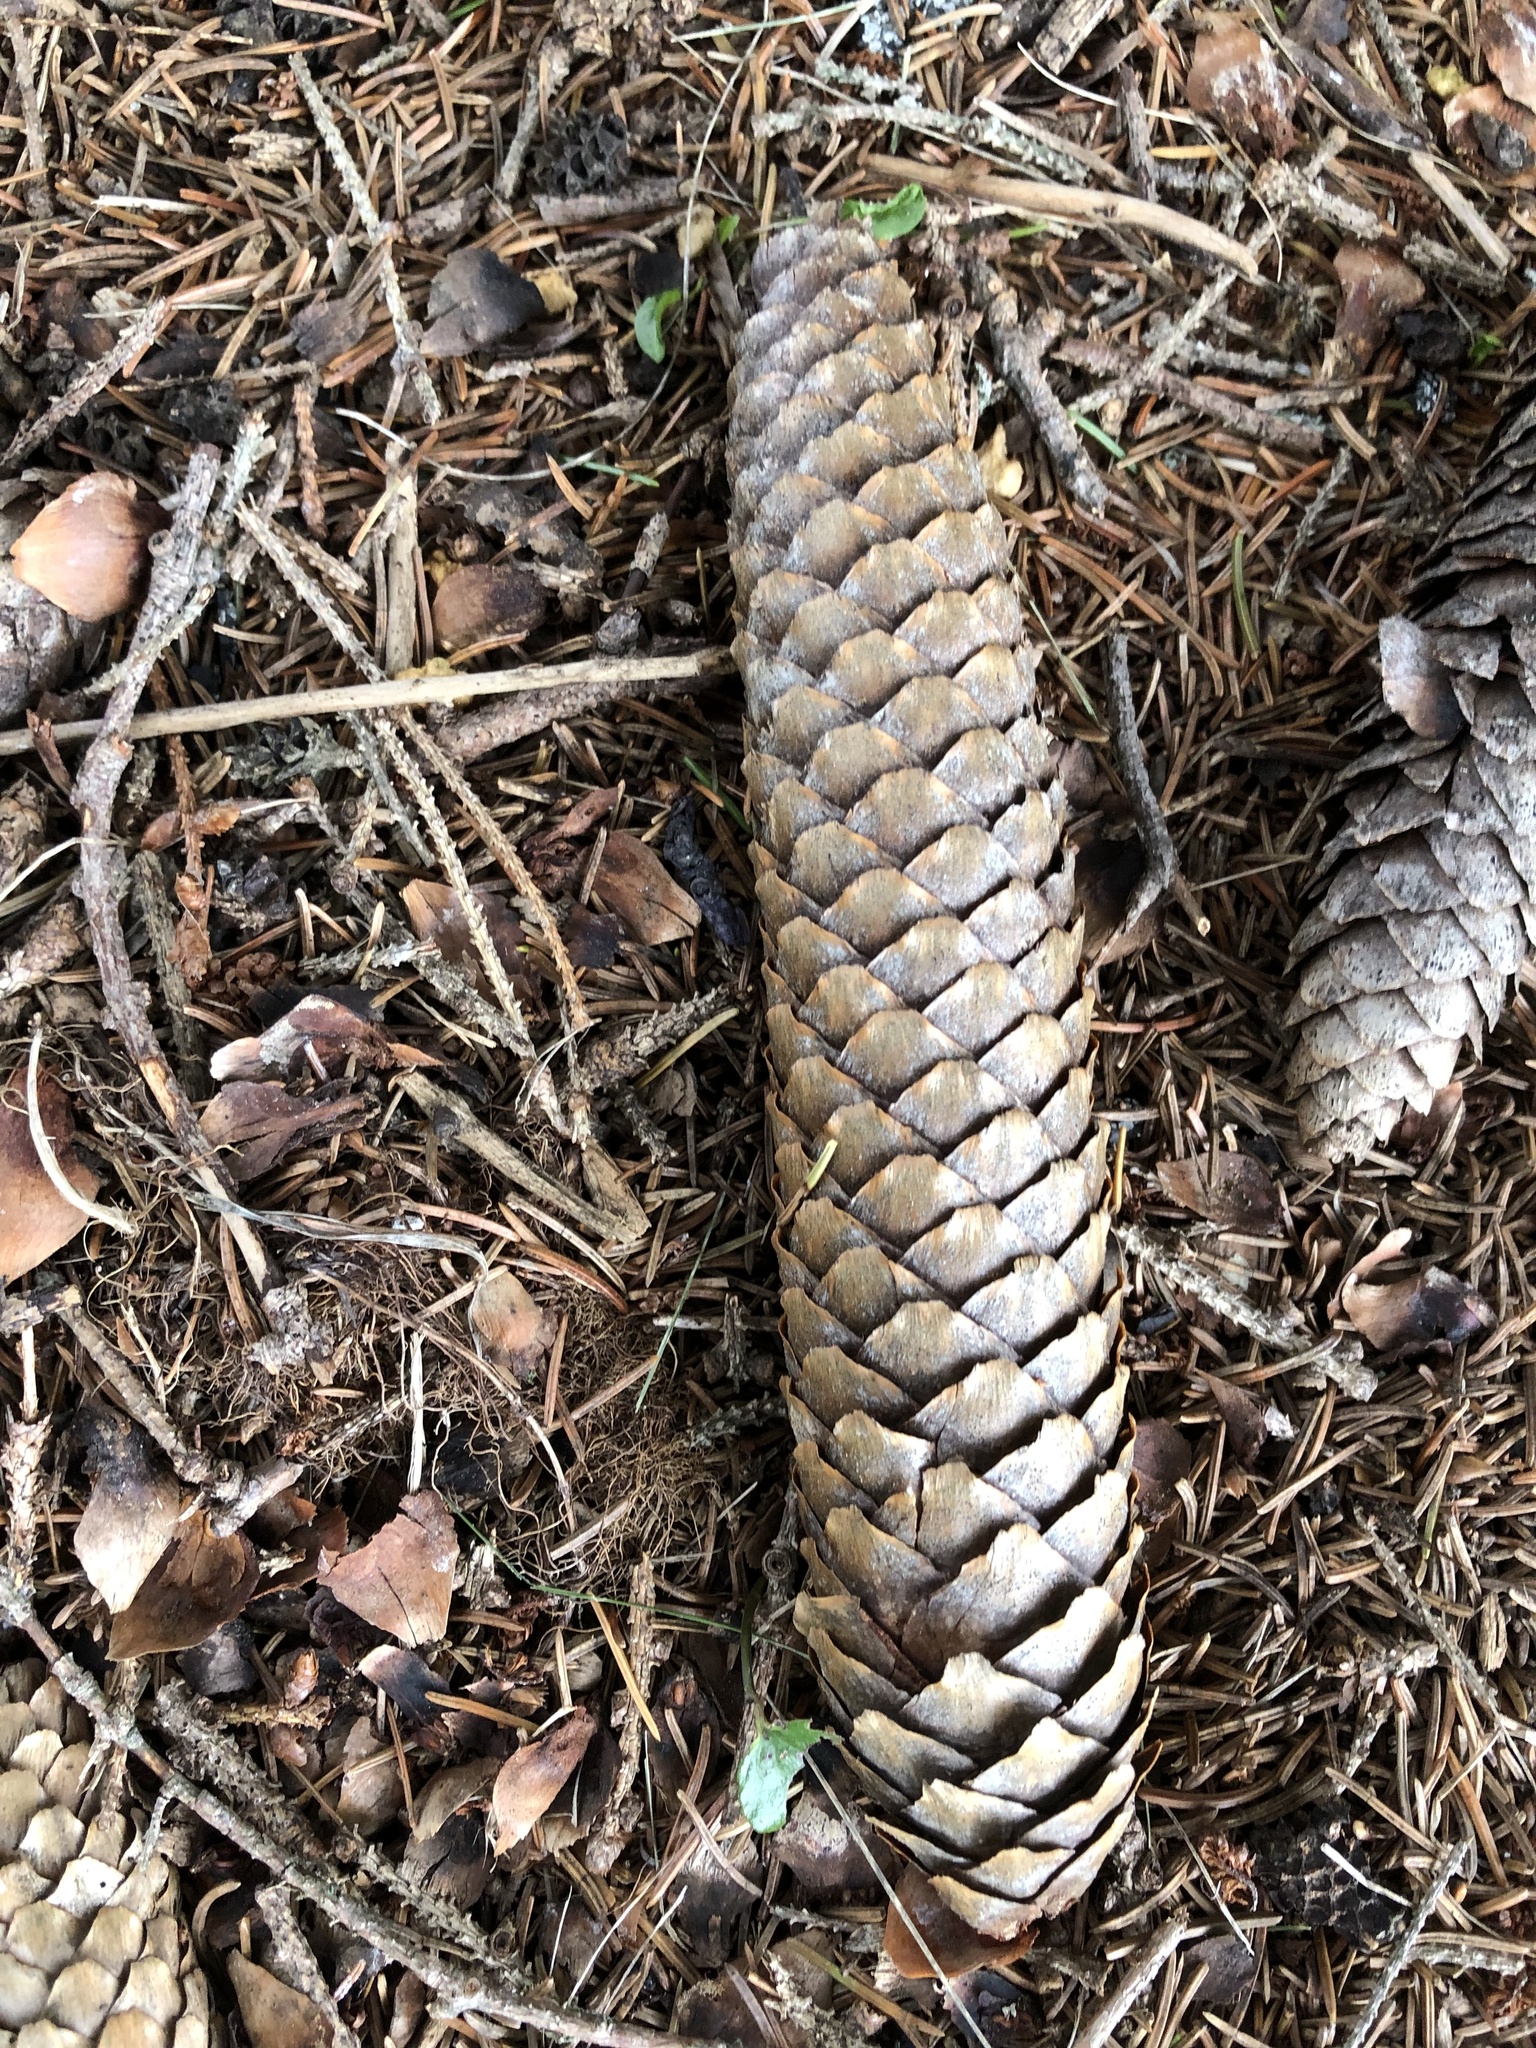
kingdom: Plantae
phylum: Tracheophyta
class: Pinopsida
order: Pinales
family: Pinaceae
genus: Picea
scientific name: Picea abies
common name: Norway spruce
